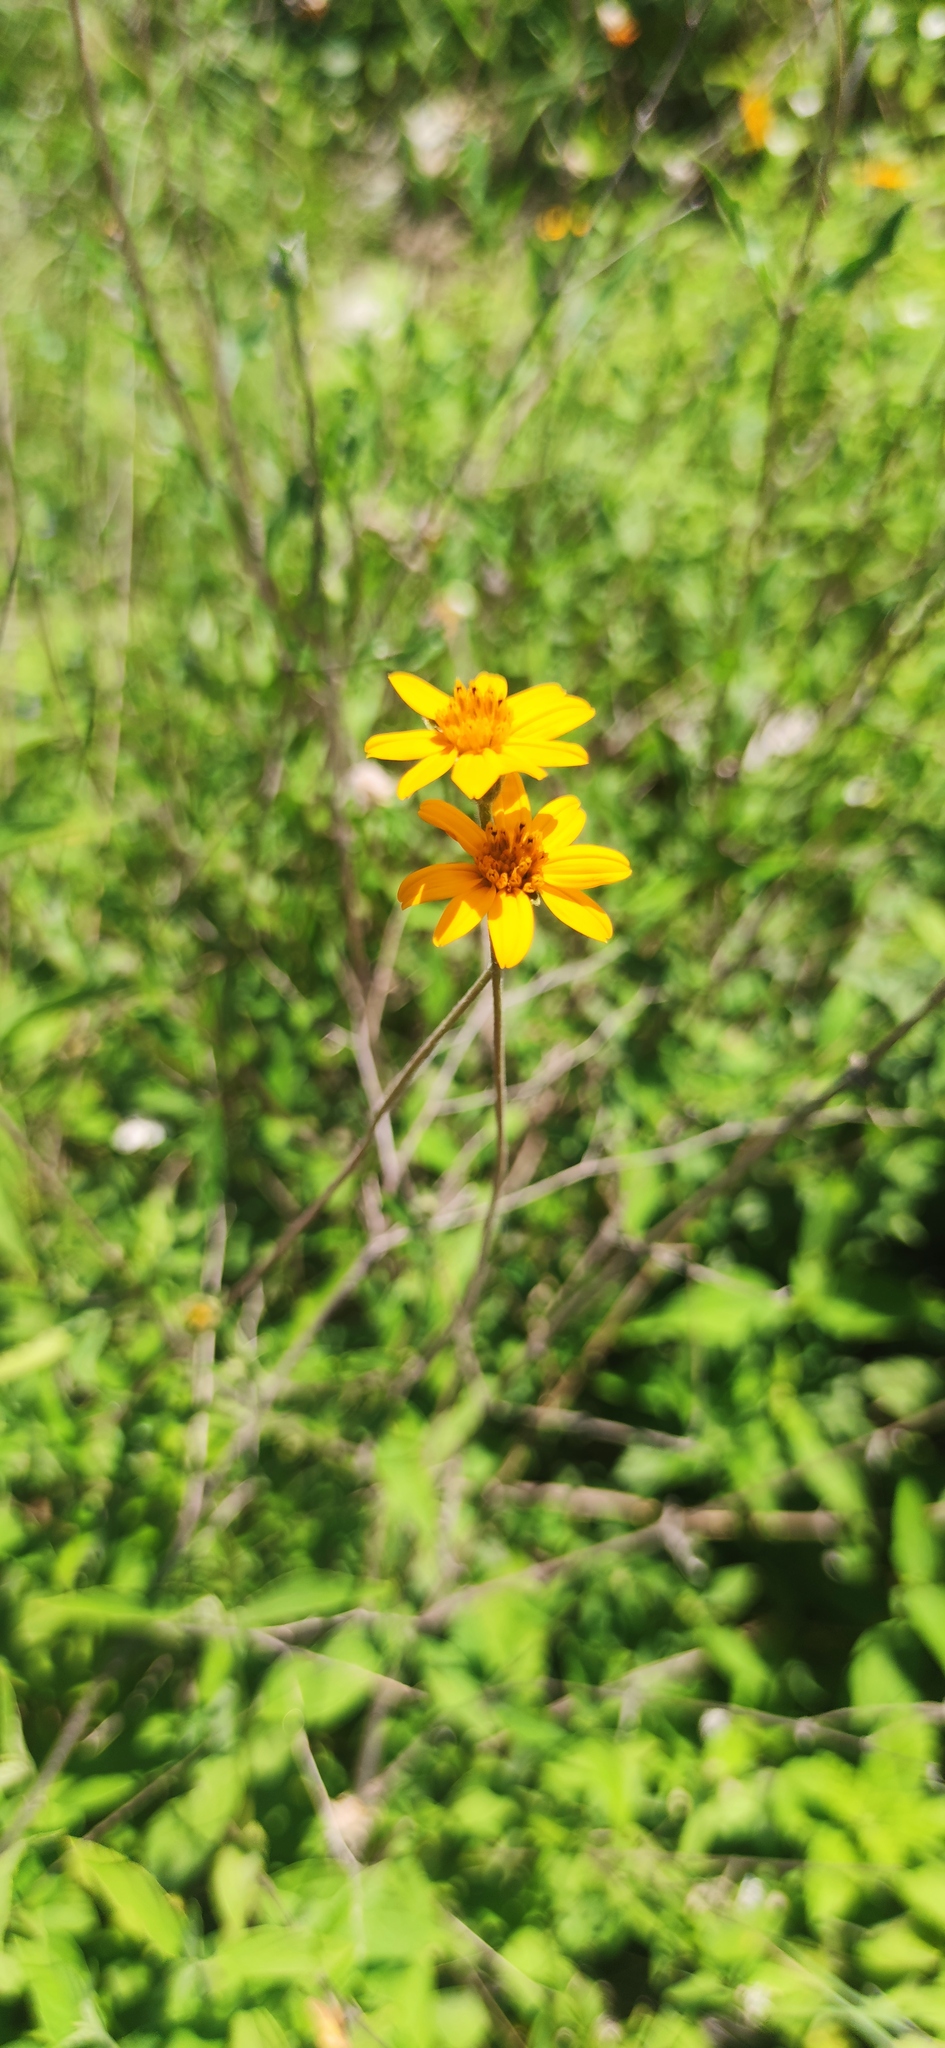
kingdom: Plantae
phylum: Tracheophyta
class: Magnoliopsida
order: Asterales
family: Asteraceae
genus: Wedelia
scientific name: Wedelia acapulcensis
